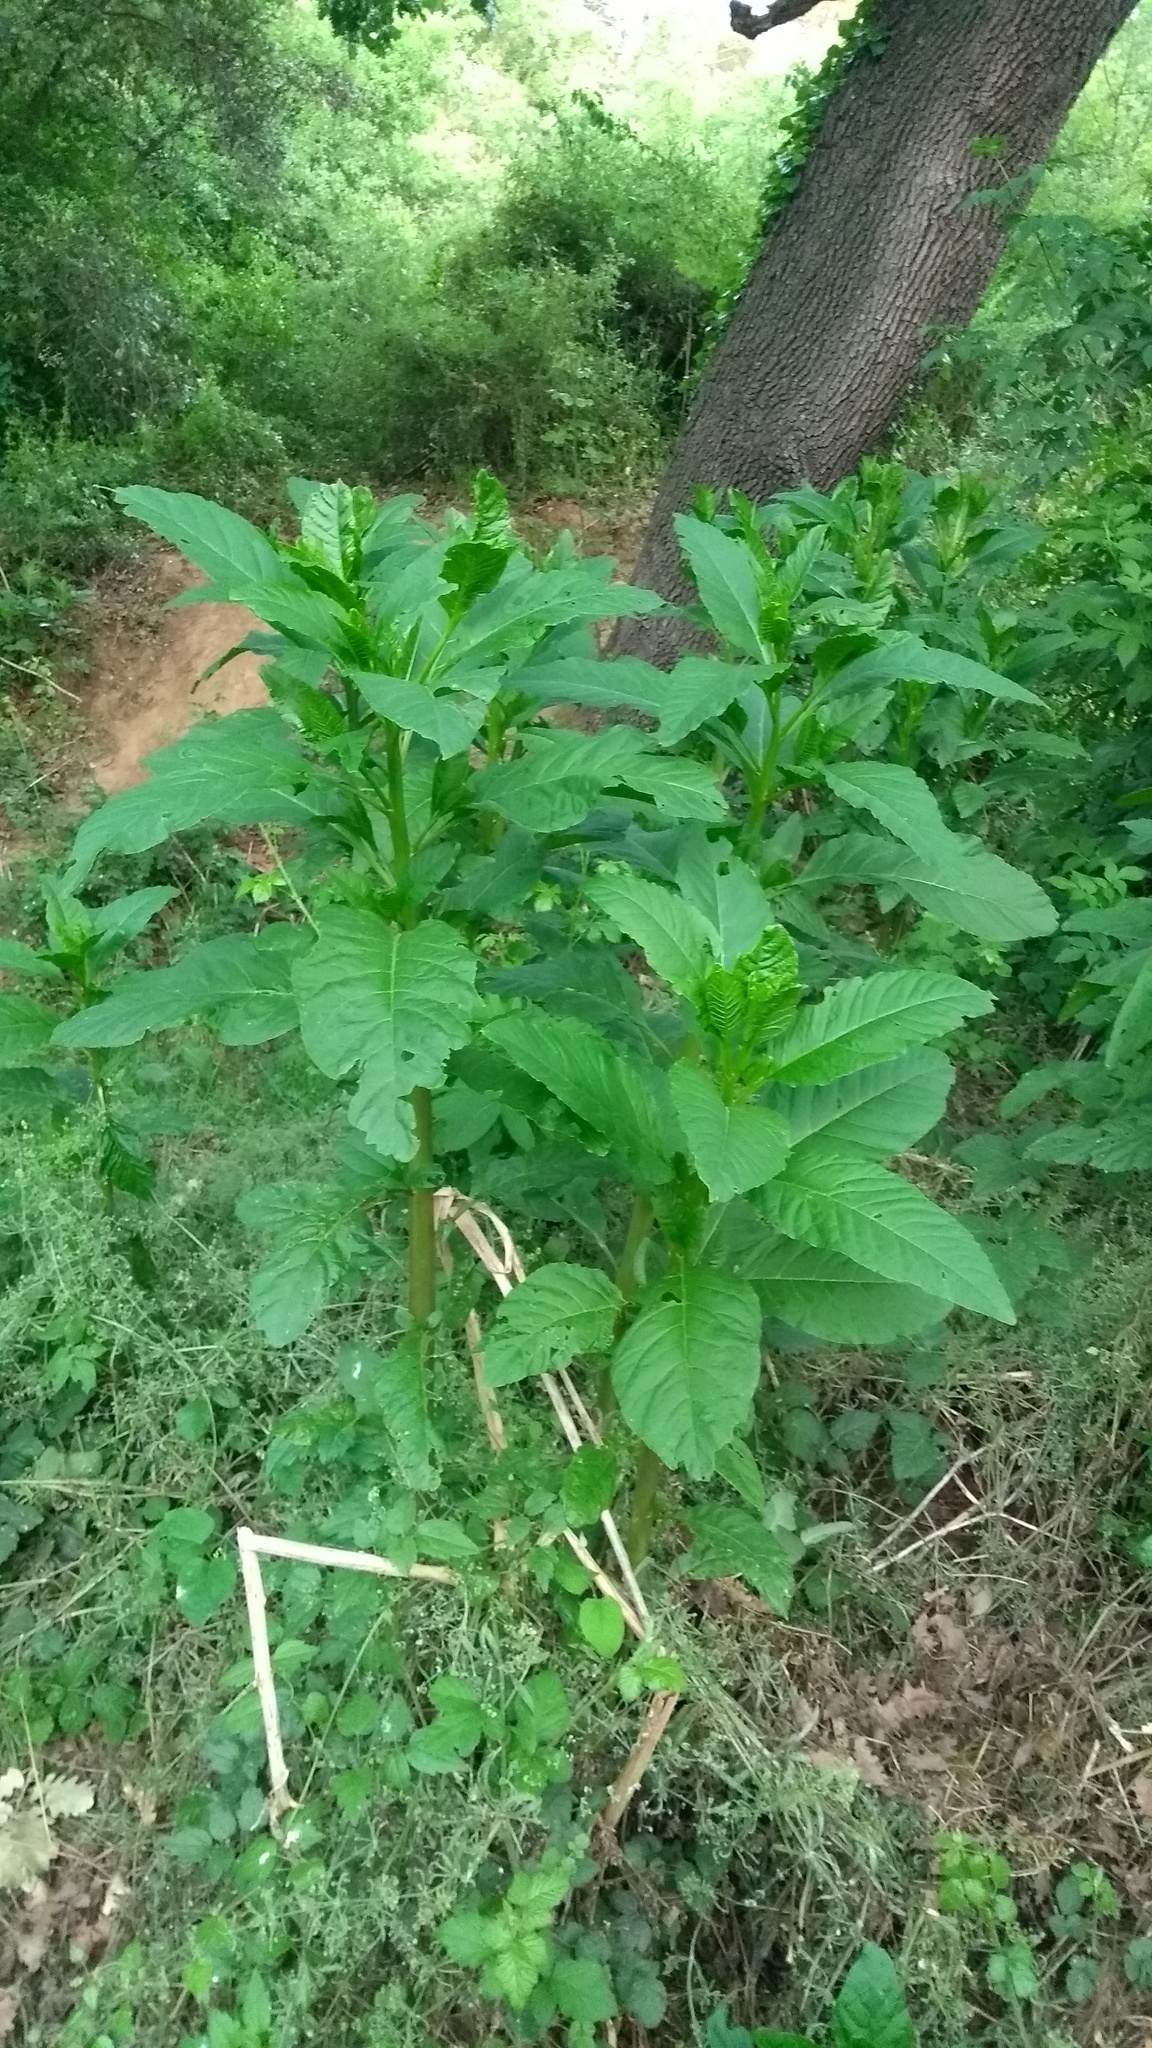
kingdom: Plantae
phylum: Tracheophyta
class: Magnoliopsida
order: Caryophyllales
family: Phytolaccaceae
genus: Phytolacca
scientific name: Phytolacca americana
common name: American pokeweed
